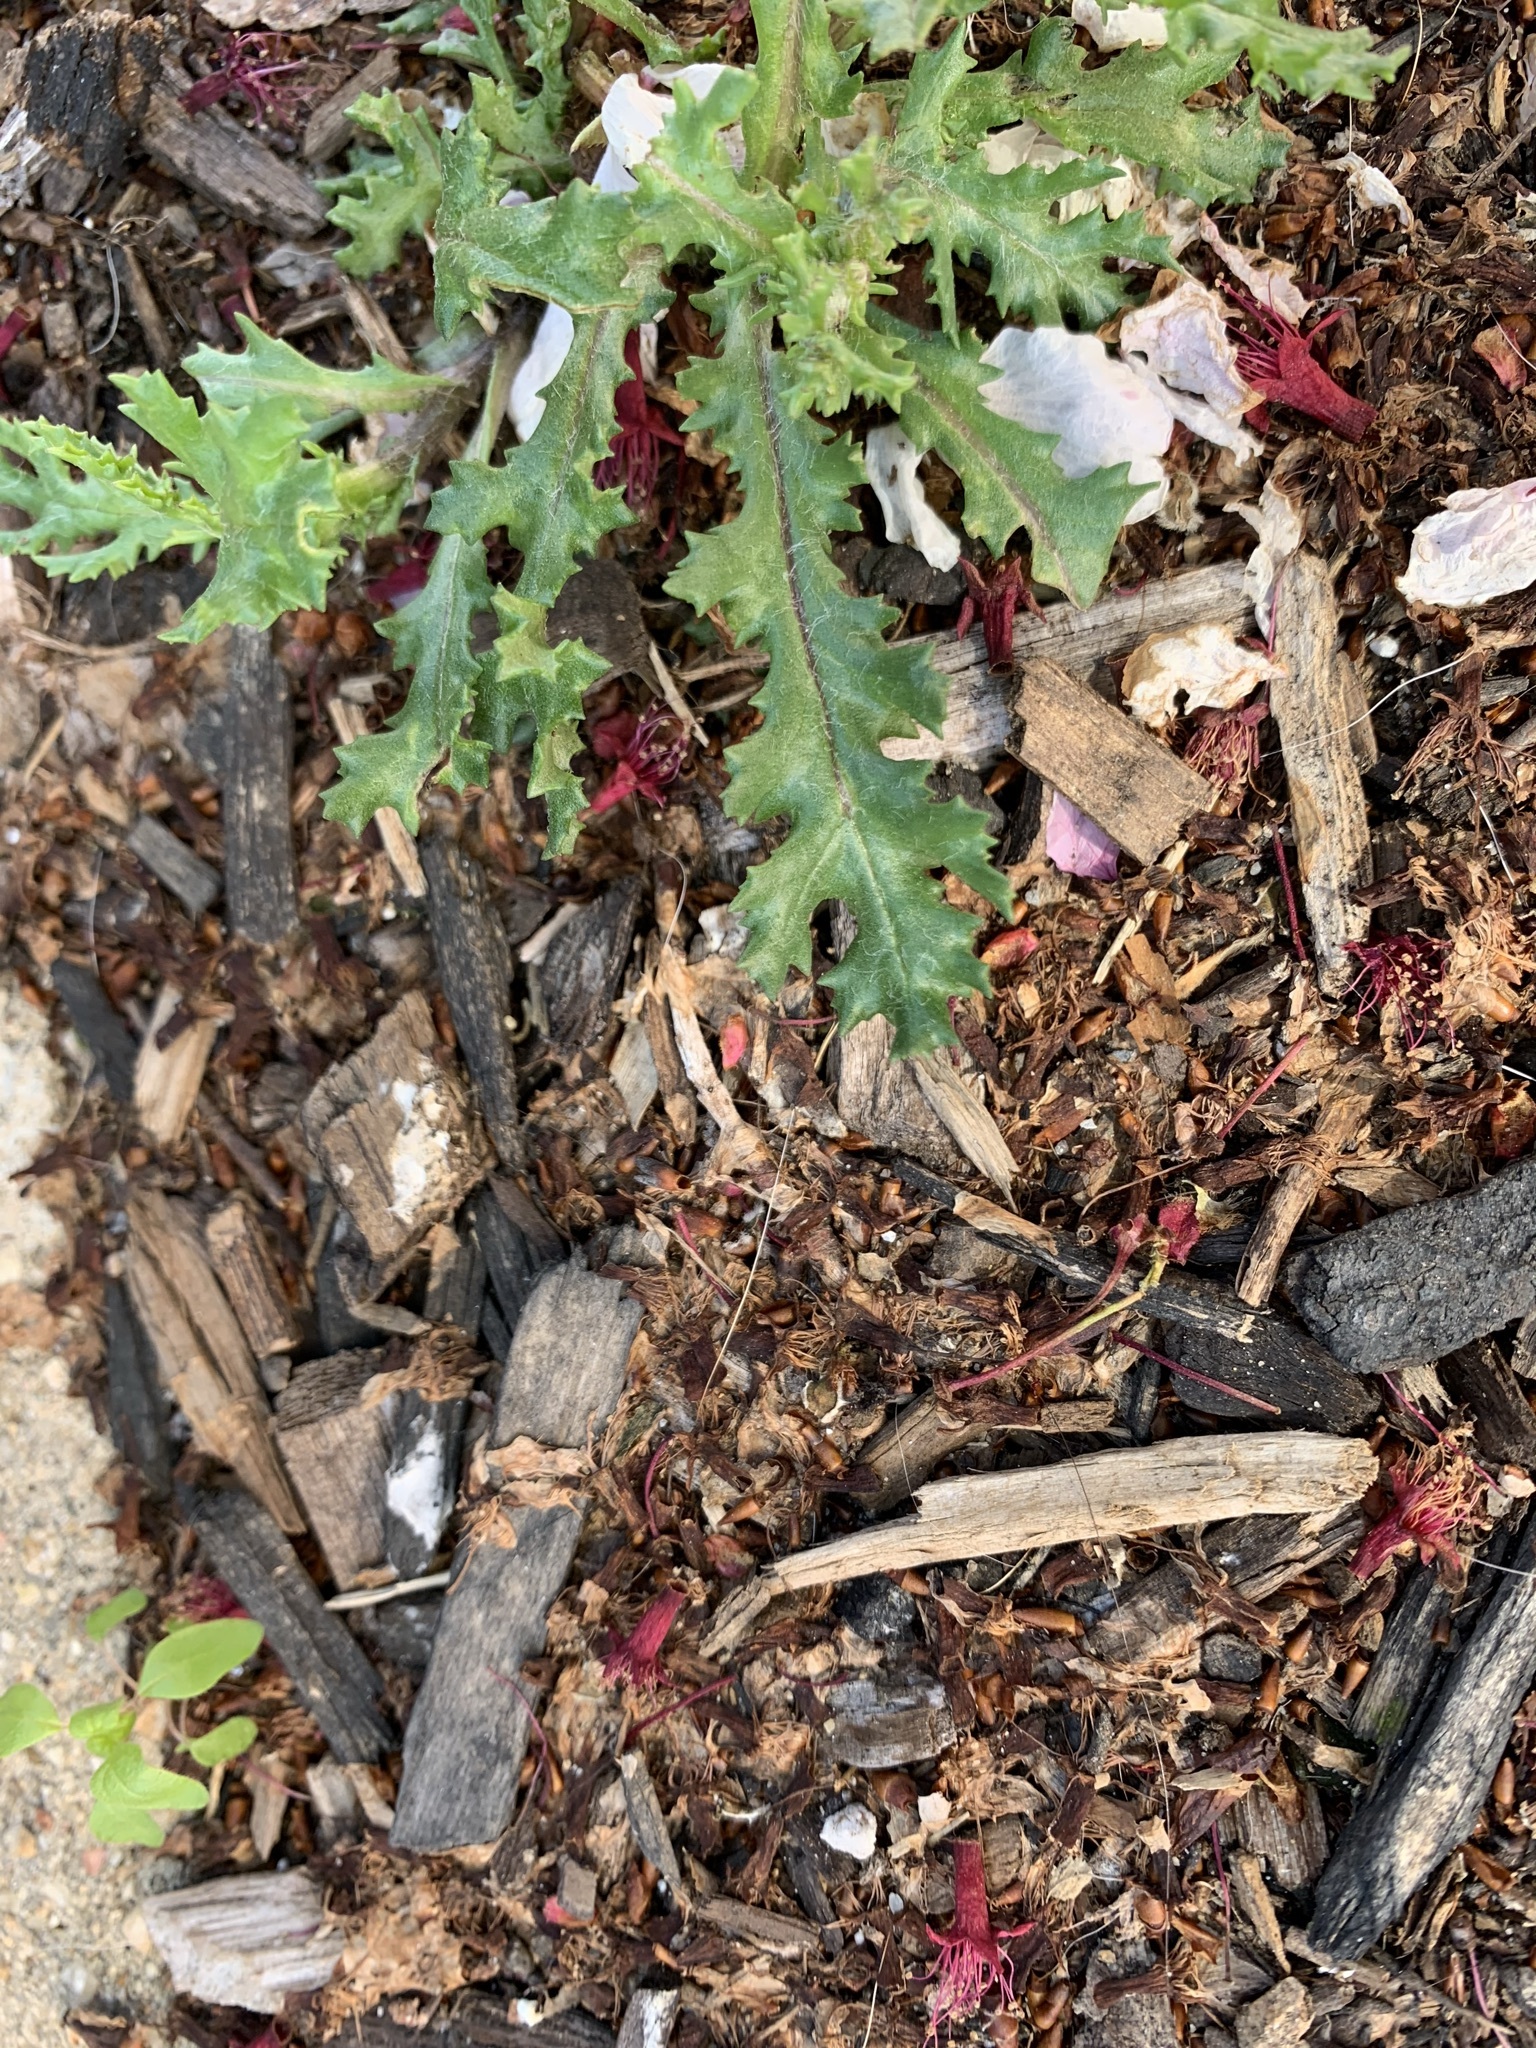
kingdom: Plantae
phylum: Tracheophyta
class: Magnoliopsida
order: Asterales
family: Asteraceae
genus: Senecio
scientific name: Senecio vulgaris
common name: Old-man-in-the-spring
